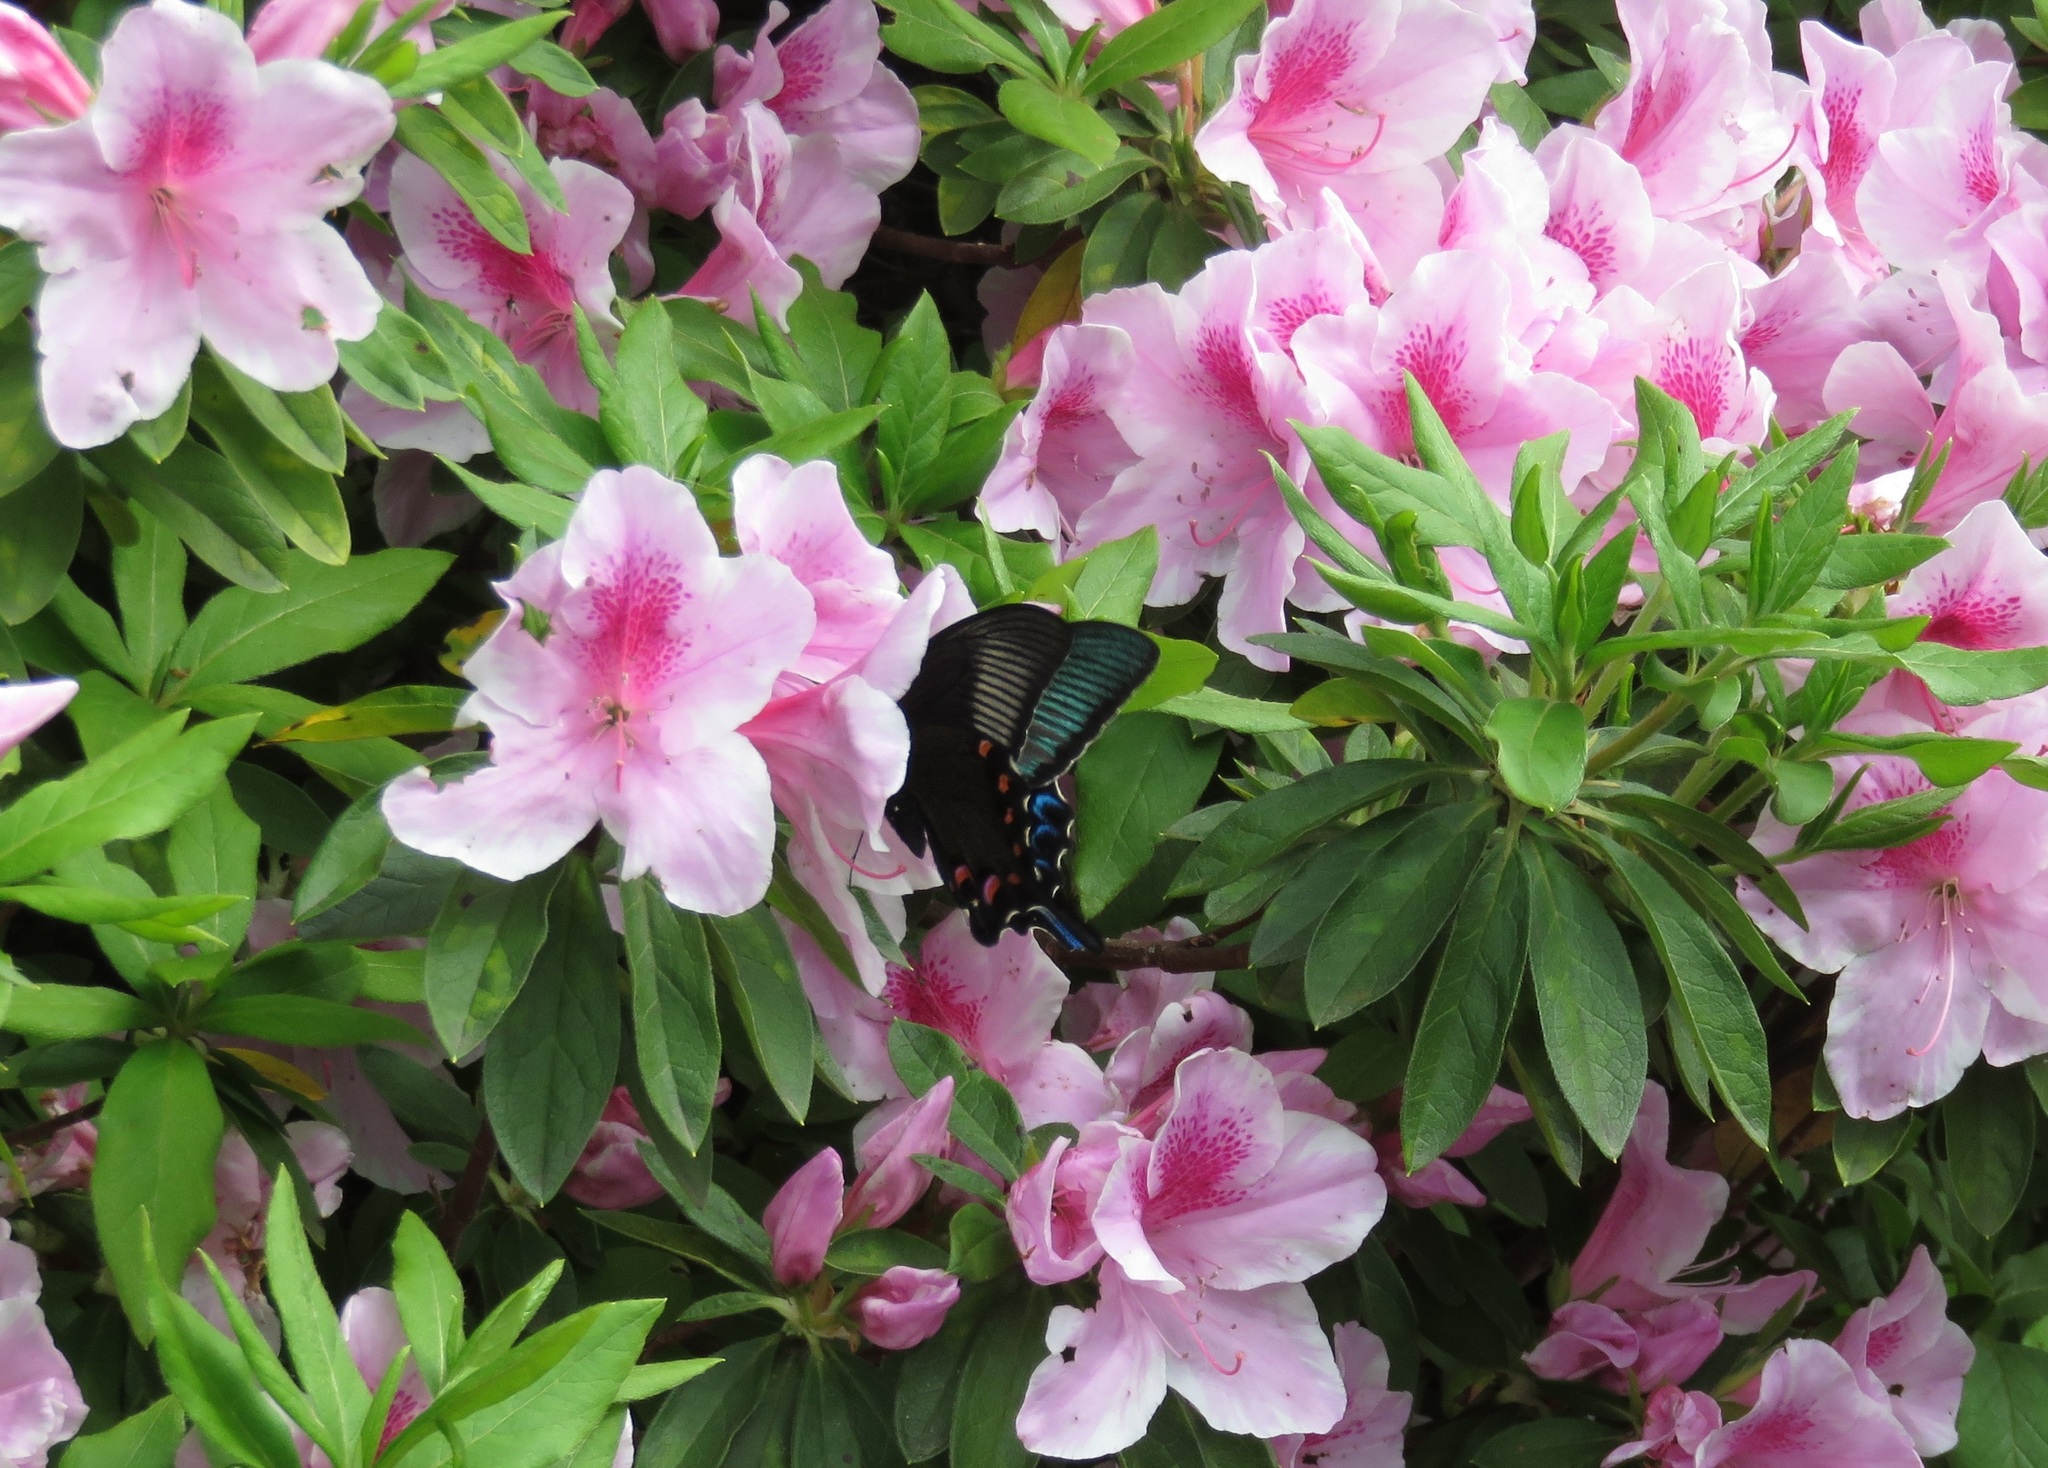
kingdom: Animalia
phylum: Arthropoda
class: Insecta
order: Lepidoptera
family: Papilionidae
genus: Papilio
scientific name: Papilio dehaanii
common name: Japanese peacock swallowtail
